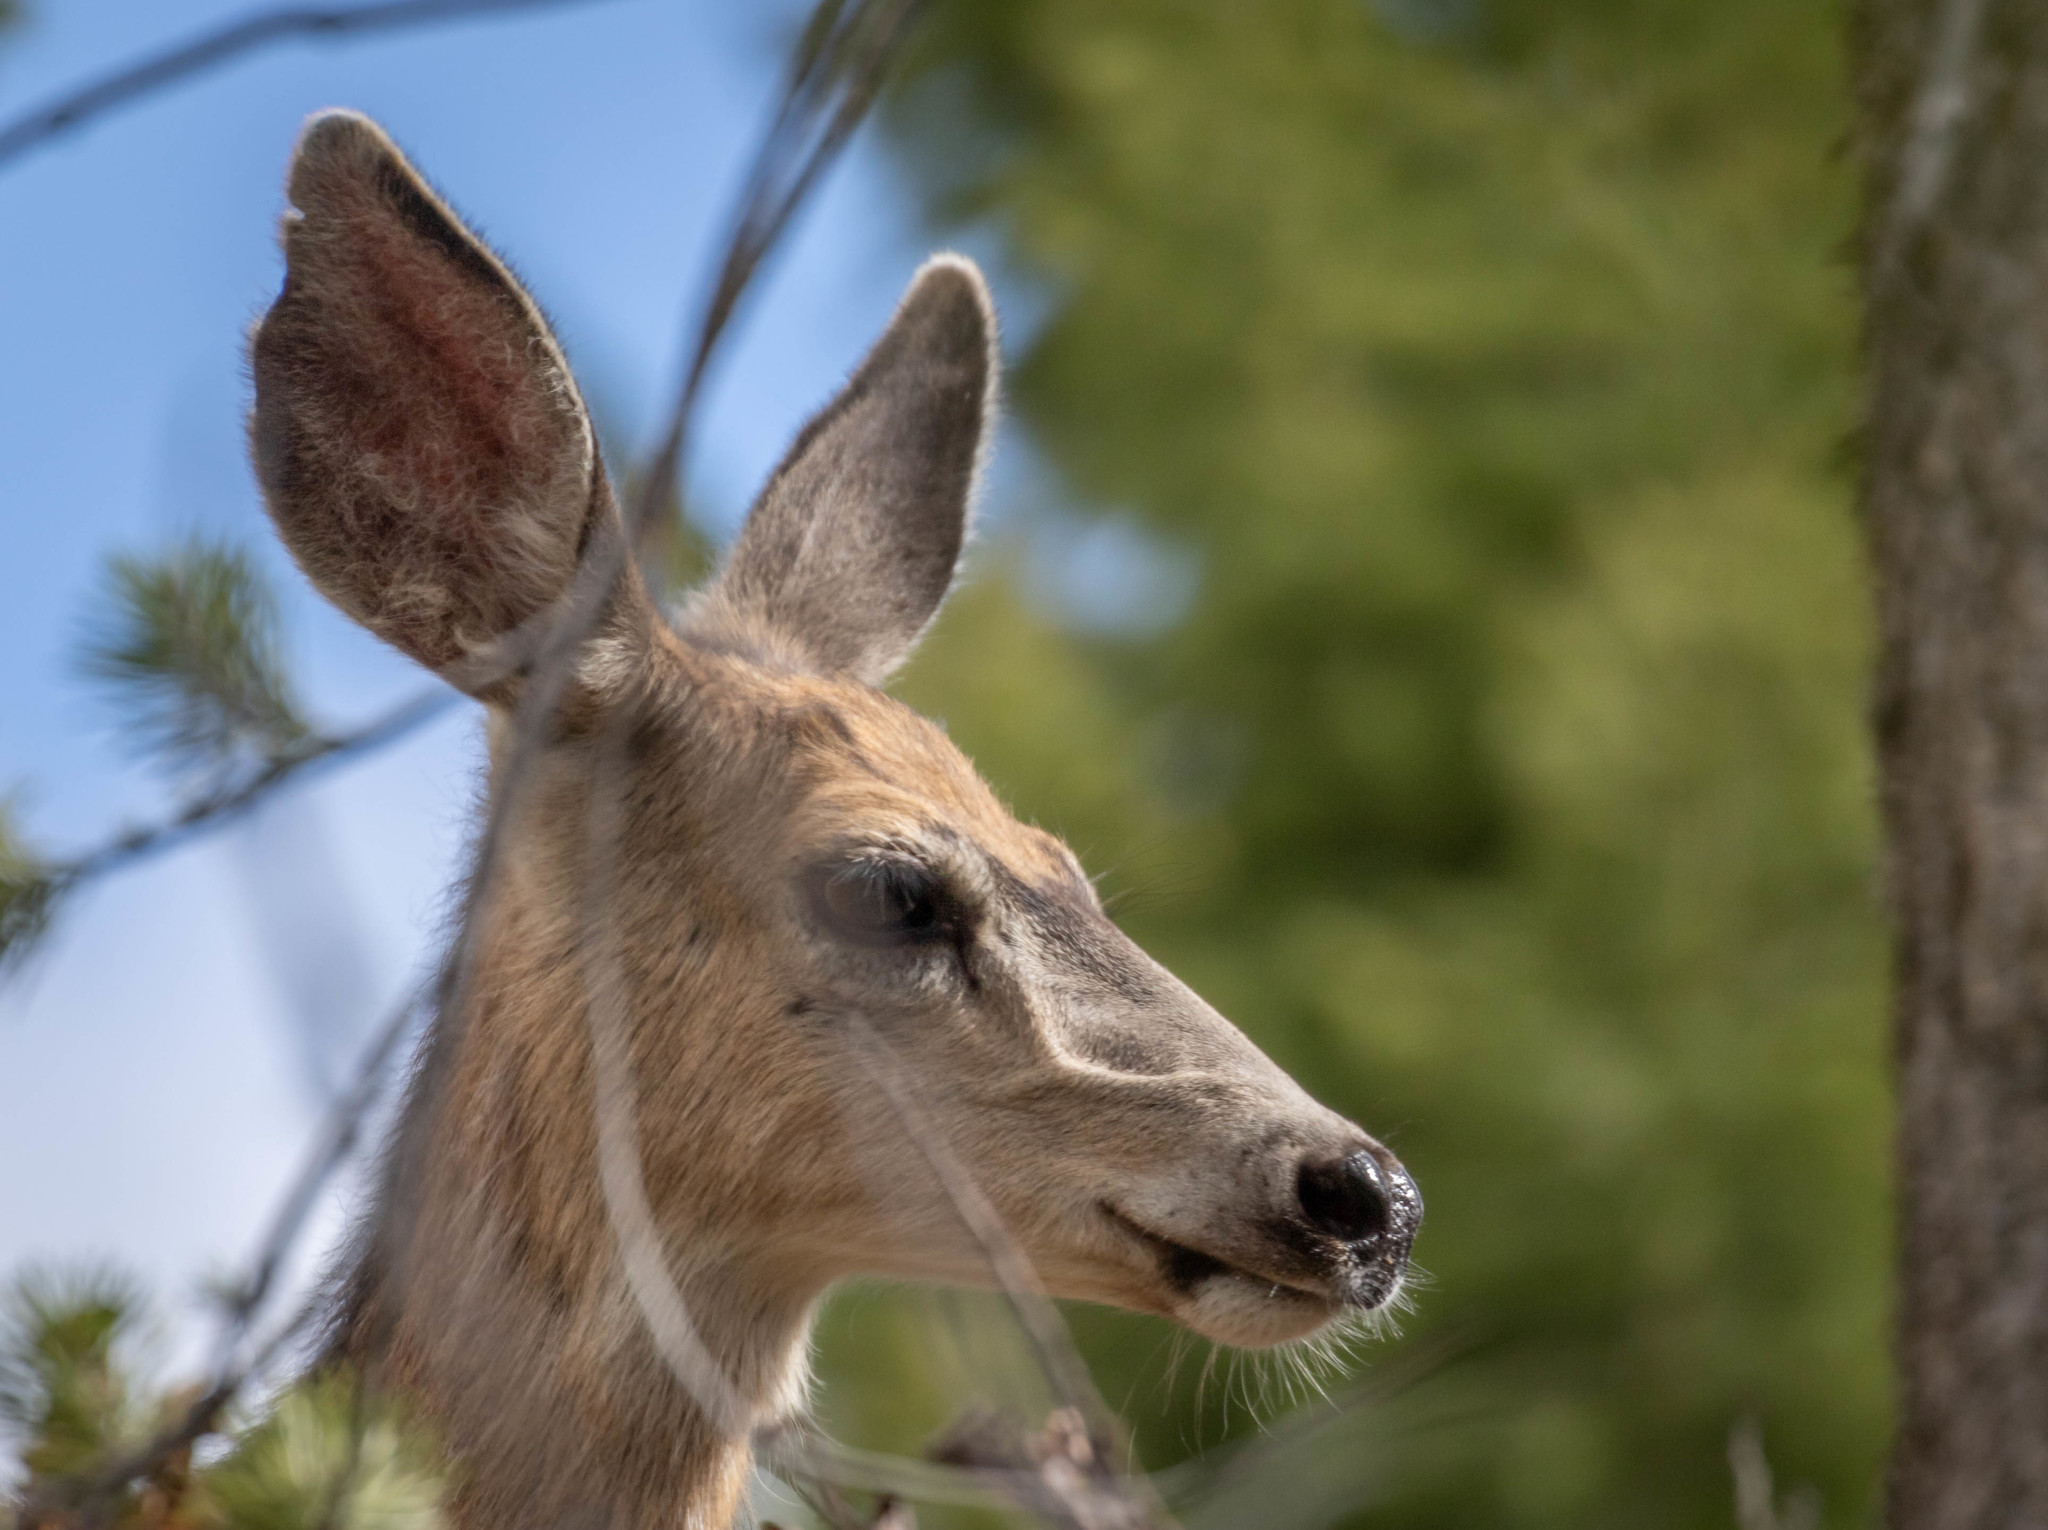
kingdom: Animalia
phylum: Chordata
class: Mammalia
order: Artiodactyla
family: Cervidae
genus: Odocoileus
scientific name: Odocoileus hemionus
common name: Mule deer
